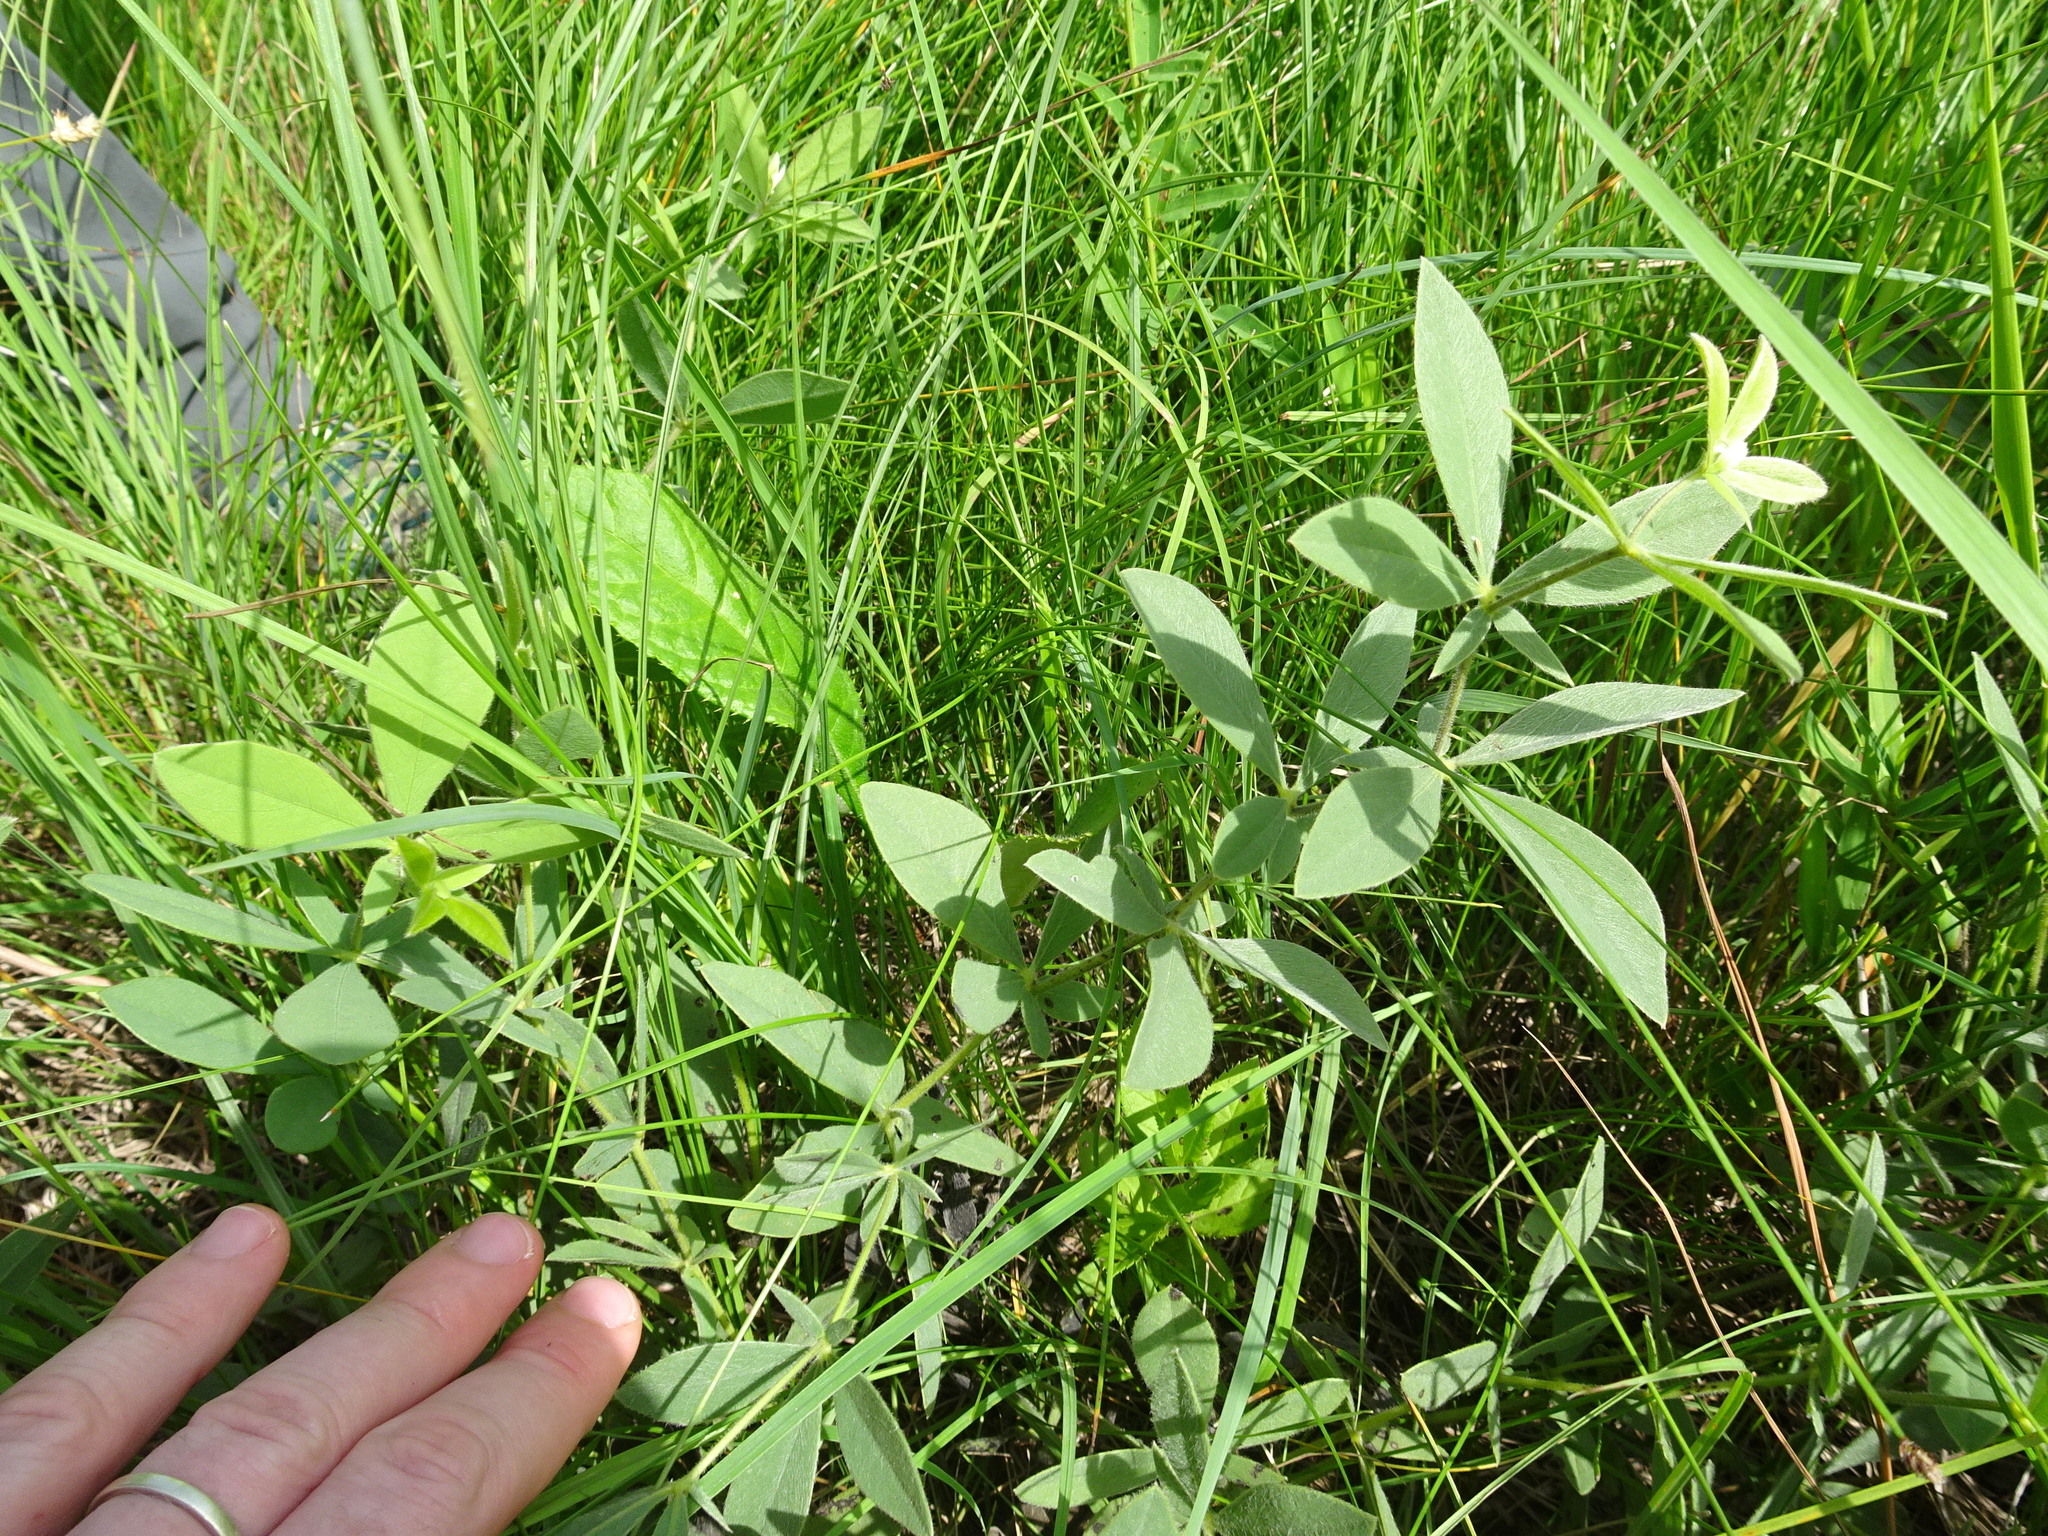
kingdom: Plantae
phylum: Tracheophyta
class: Magnoliopsida
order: Fabales
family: Fabaceae
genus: Baptisia
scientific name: Baptisia bracteata
